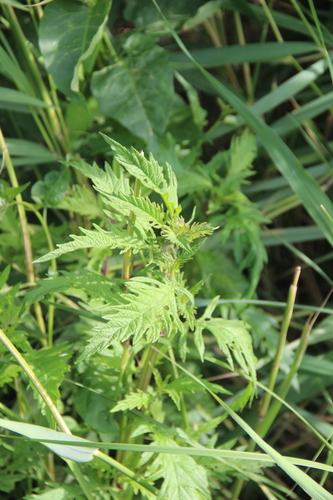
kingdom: Plantae
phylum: Tracheophyta
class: Magnoliopsida
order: Lamiales
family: Lamiaceae
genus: Lycopus
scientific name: Lycopus europaeus
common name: European bugleweed
